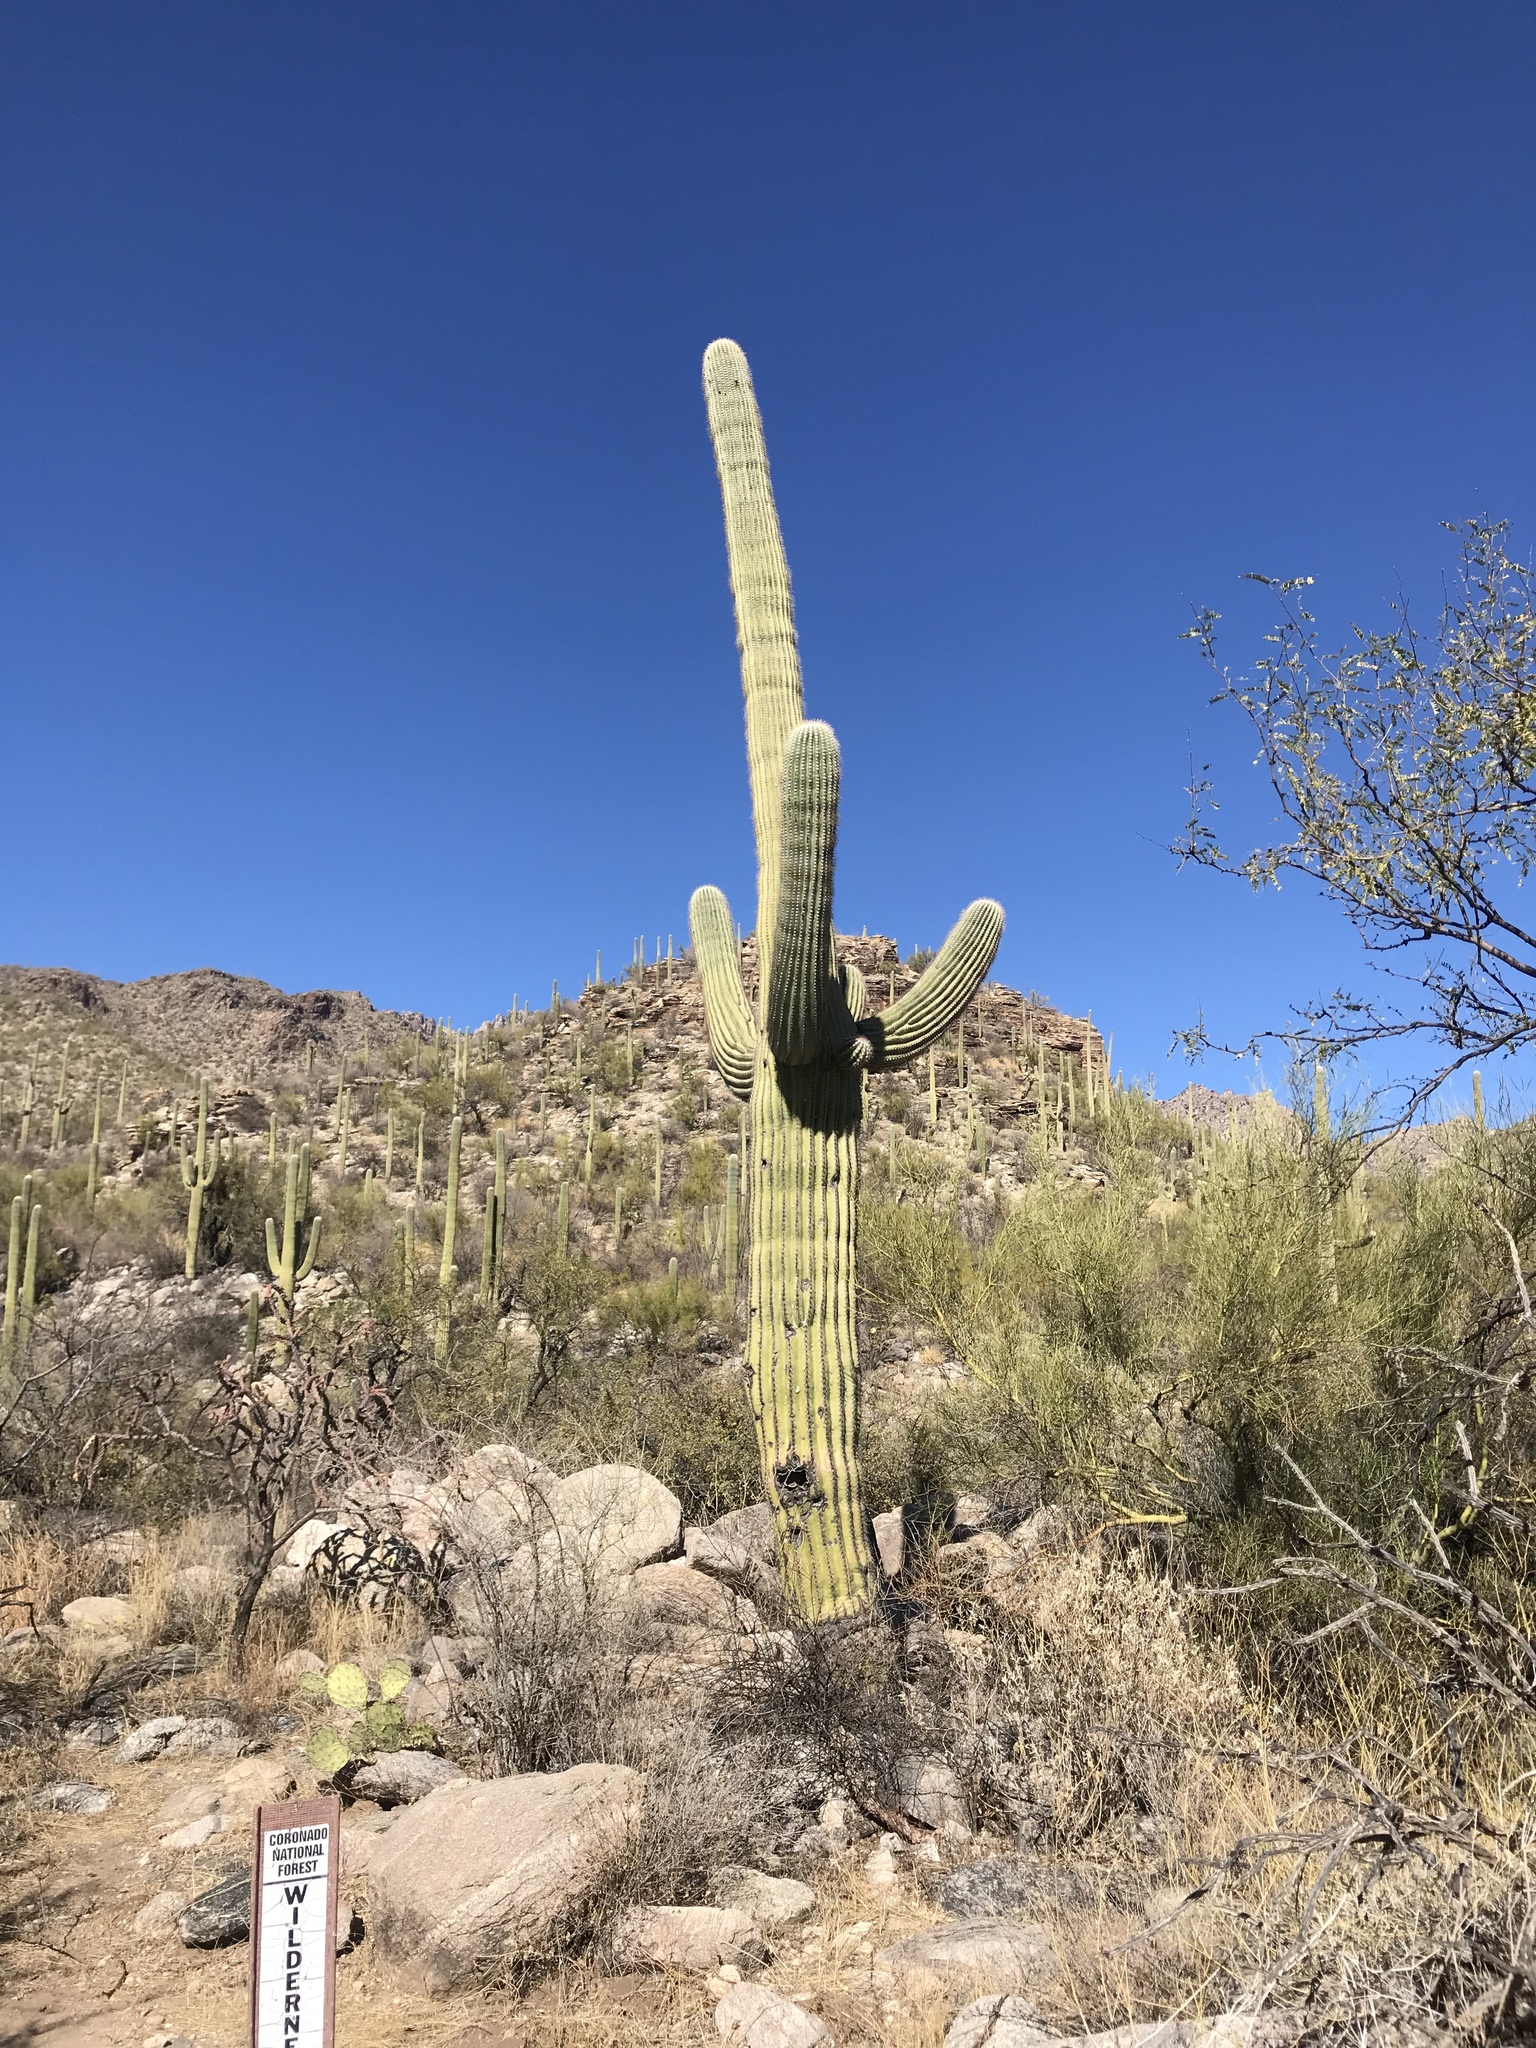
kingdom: Plantae
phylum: Tracheophyta
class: Magnoliopsida
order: Caryophyllales
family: Cactaceae
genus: Carnegiea
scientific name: Carnegiea gigantea
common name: Saguaro
